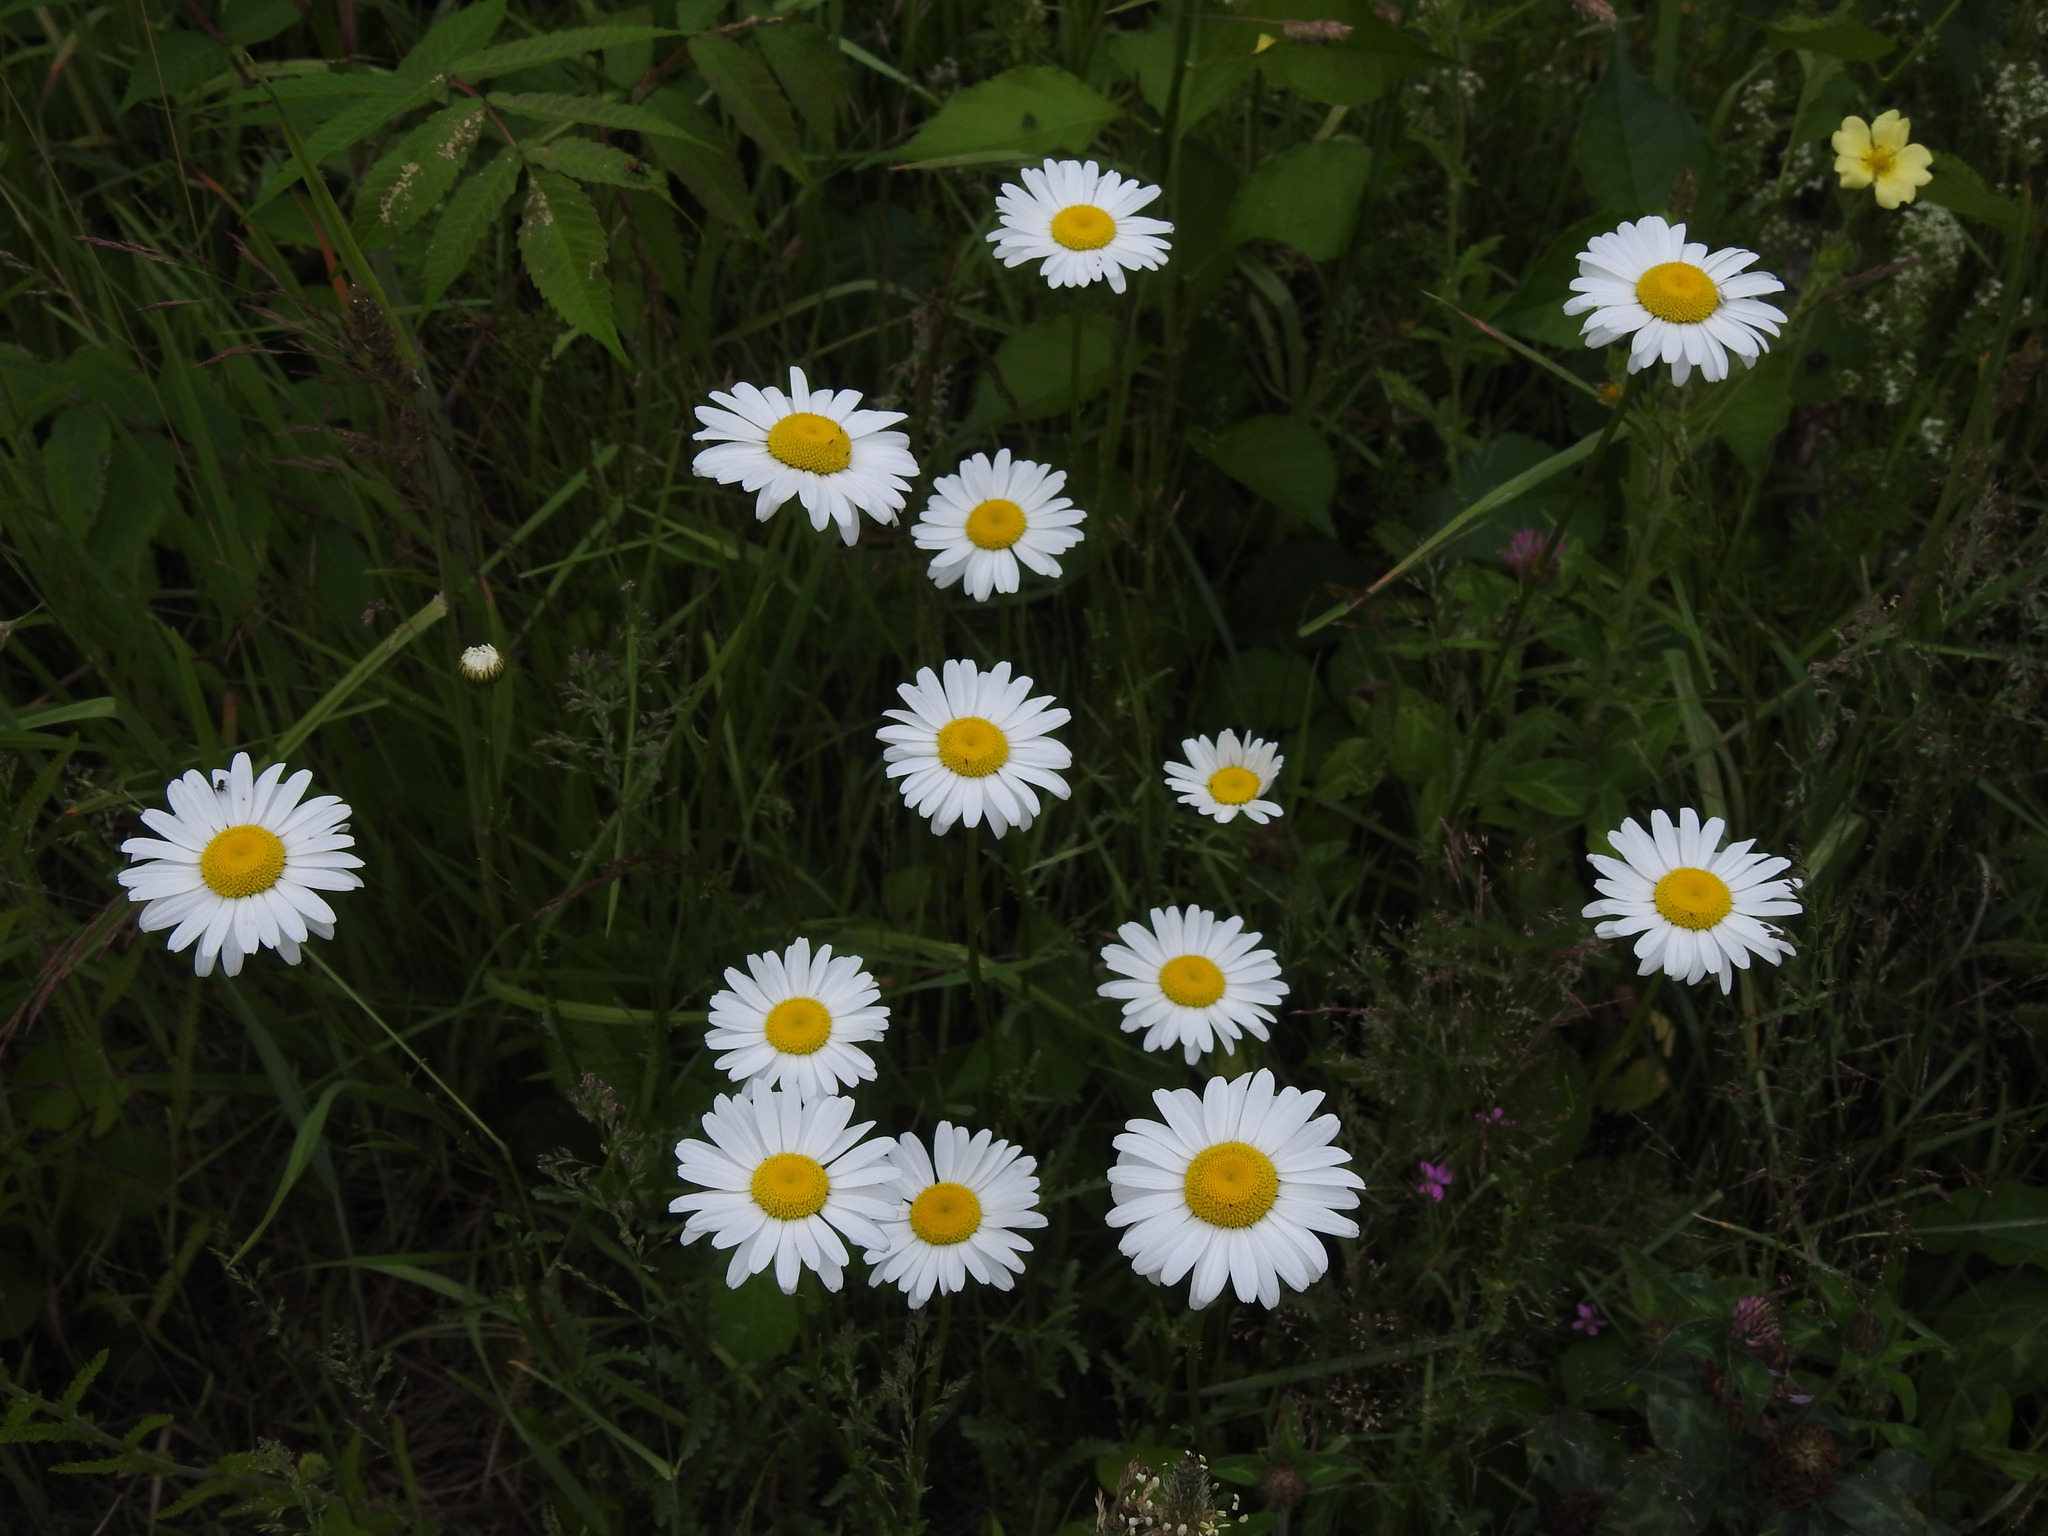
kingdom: Plantae
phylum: Tracheophyta
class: Magnoliopsida
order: Asterales
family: Asteraceae
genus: Leucanthemum
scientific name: Leucanthemum vulgare
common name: Oxeye daisy
